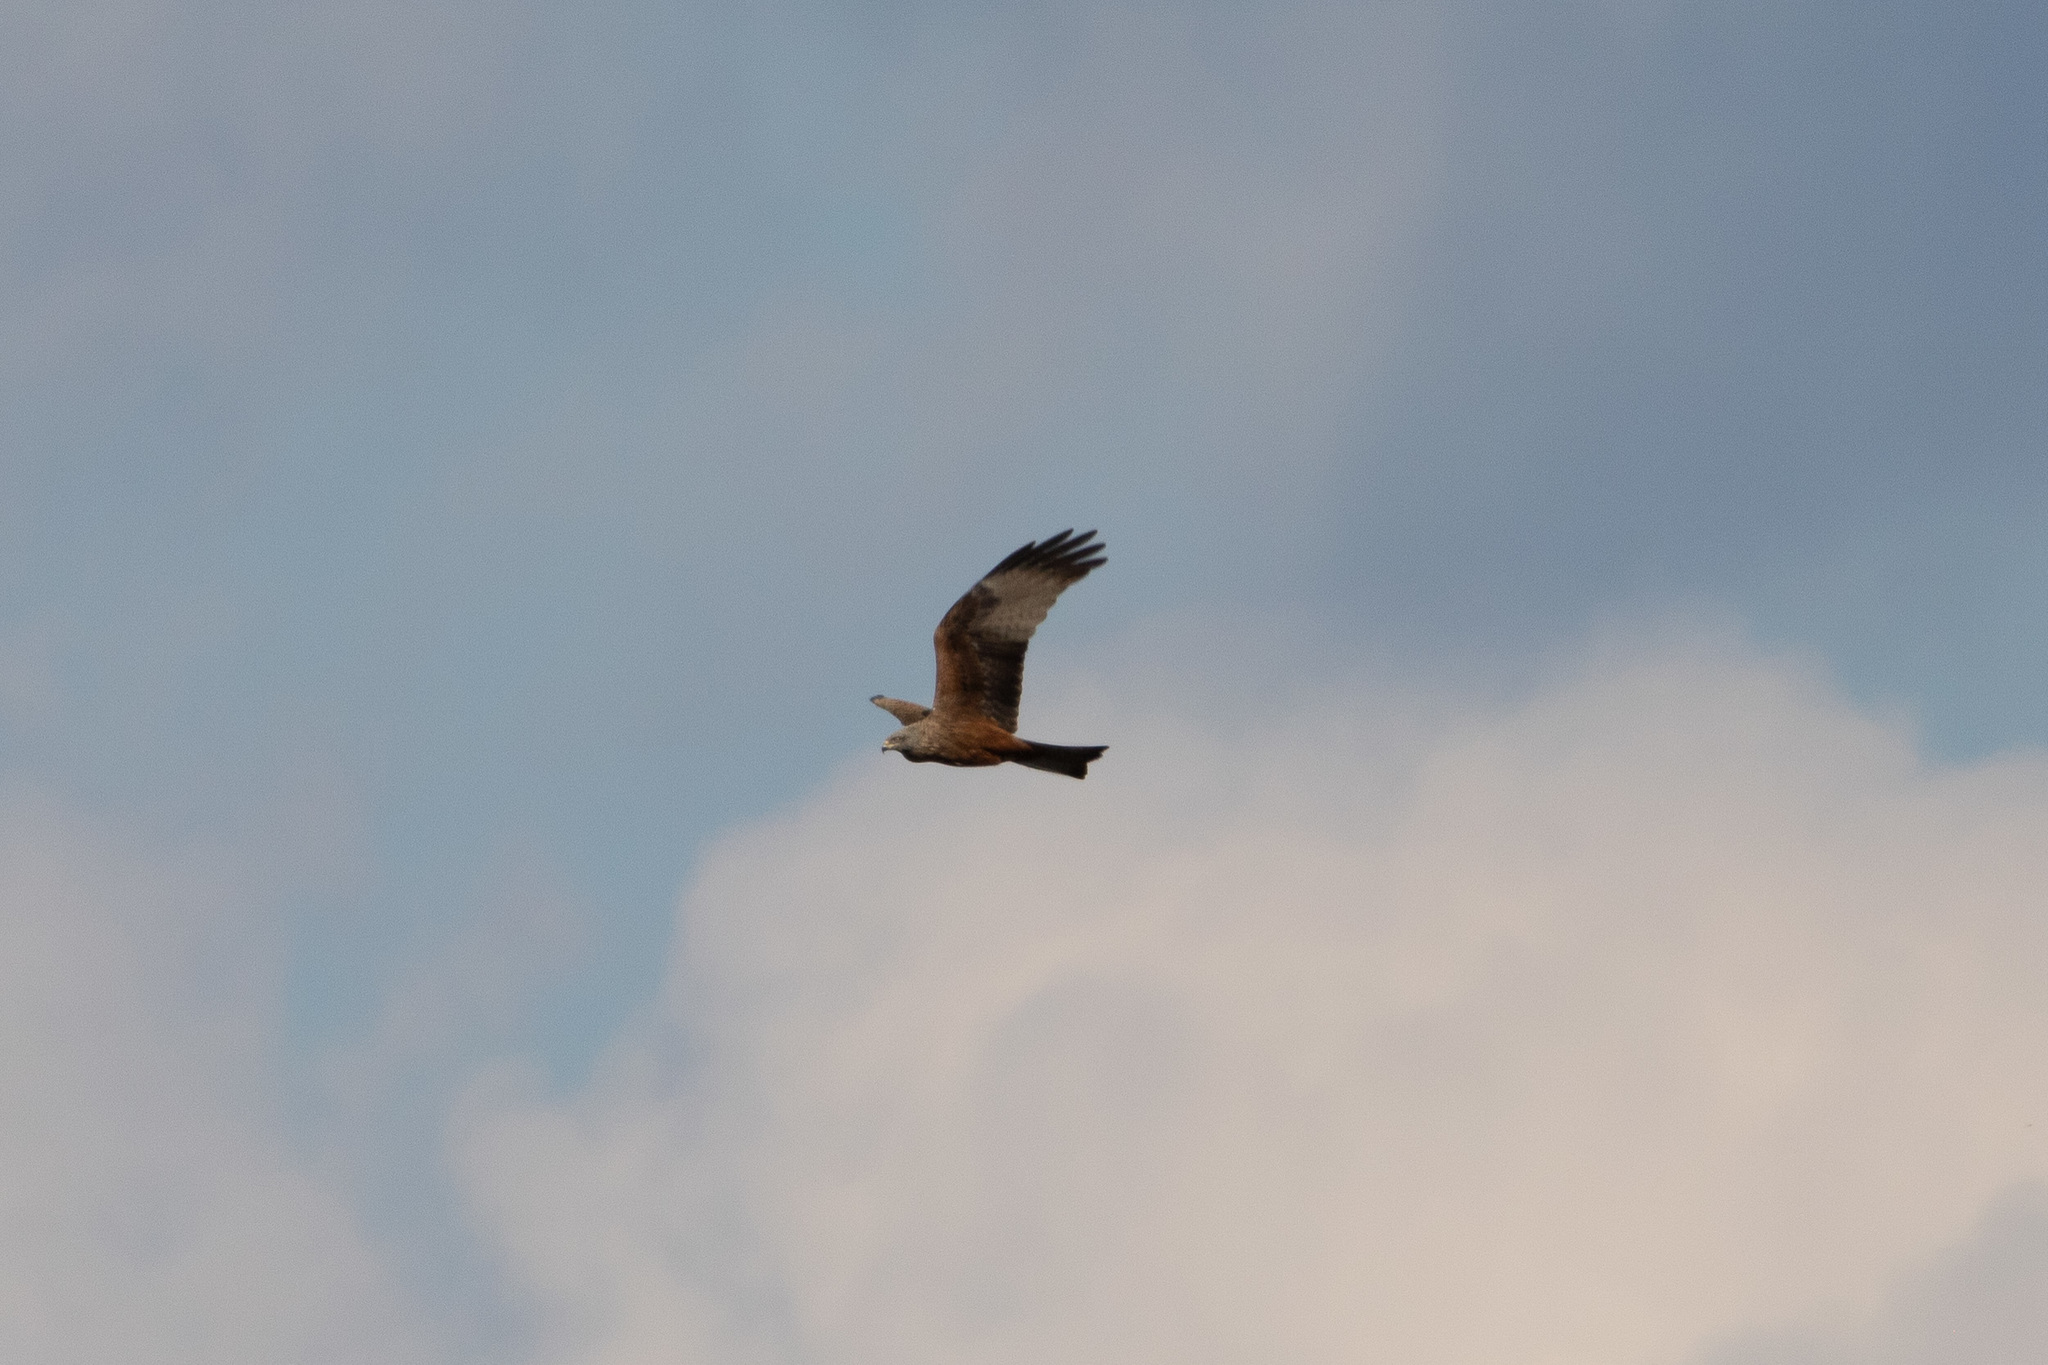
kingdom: Animalia
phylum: Chordata
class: Aves
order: Accipitriformes
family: Accipitridae
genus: Milvus
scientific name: Milvus migrans
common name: Black kite
